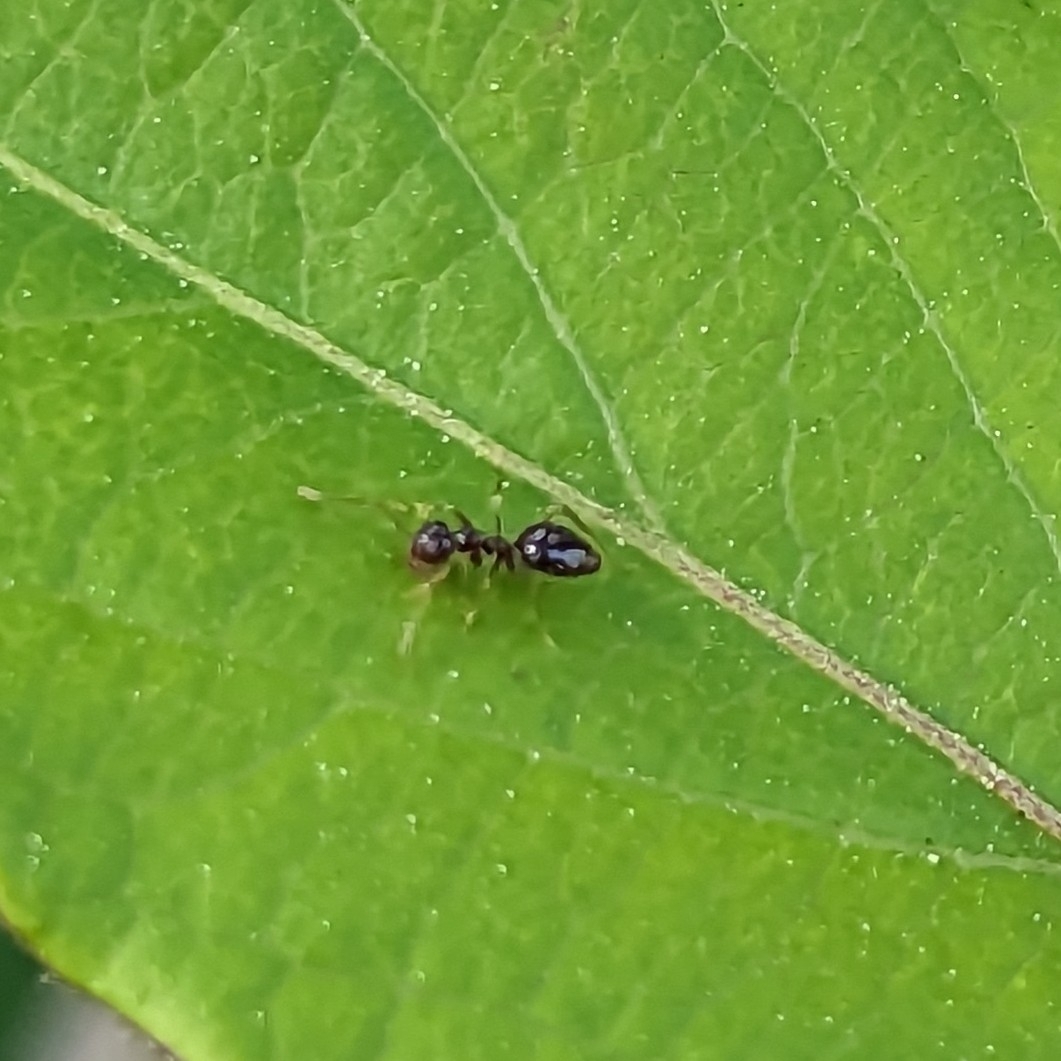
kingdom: Animalia
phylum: Arthropoda
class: Insecta
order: Hymenoptera
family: Formicidae
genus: Prenolepis
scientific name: Prenolepis imparis
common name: Small honey ant
